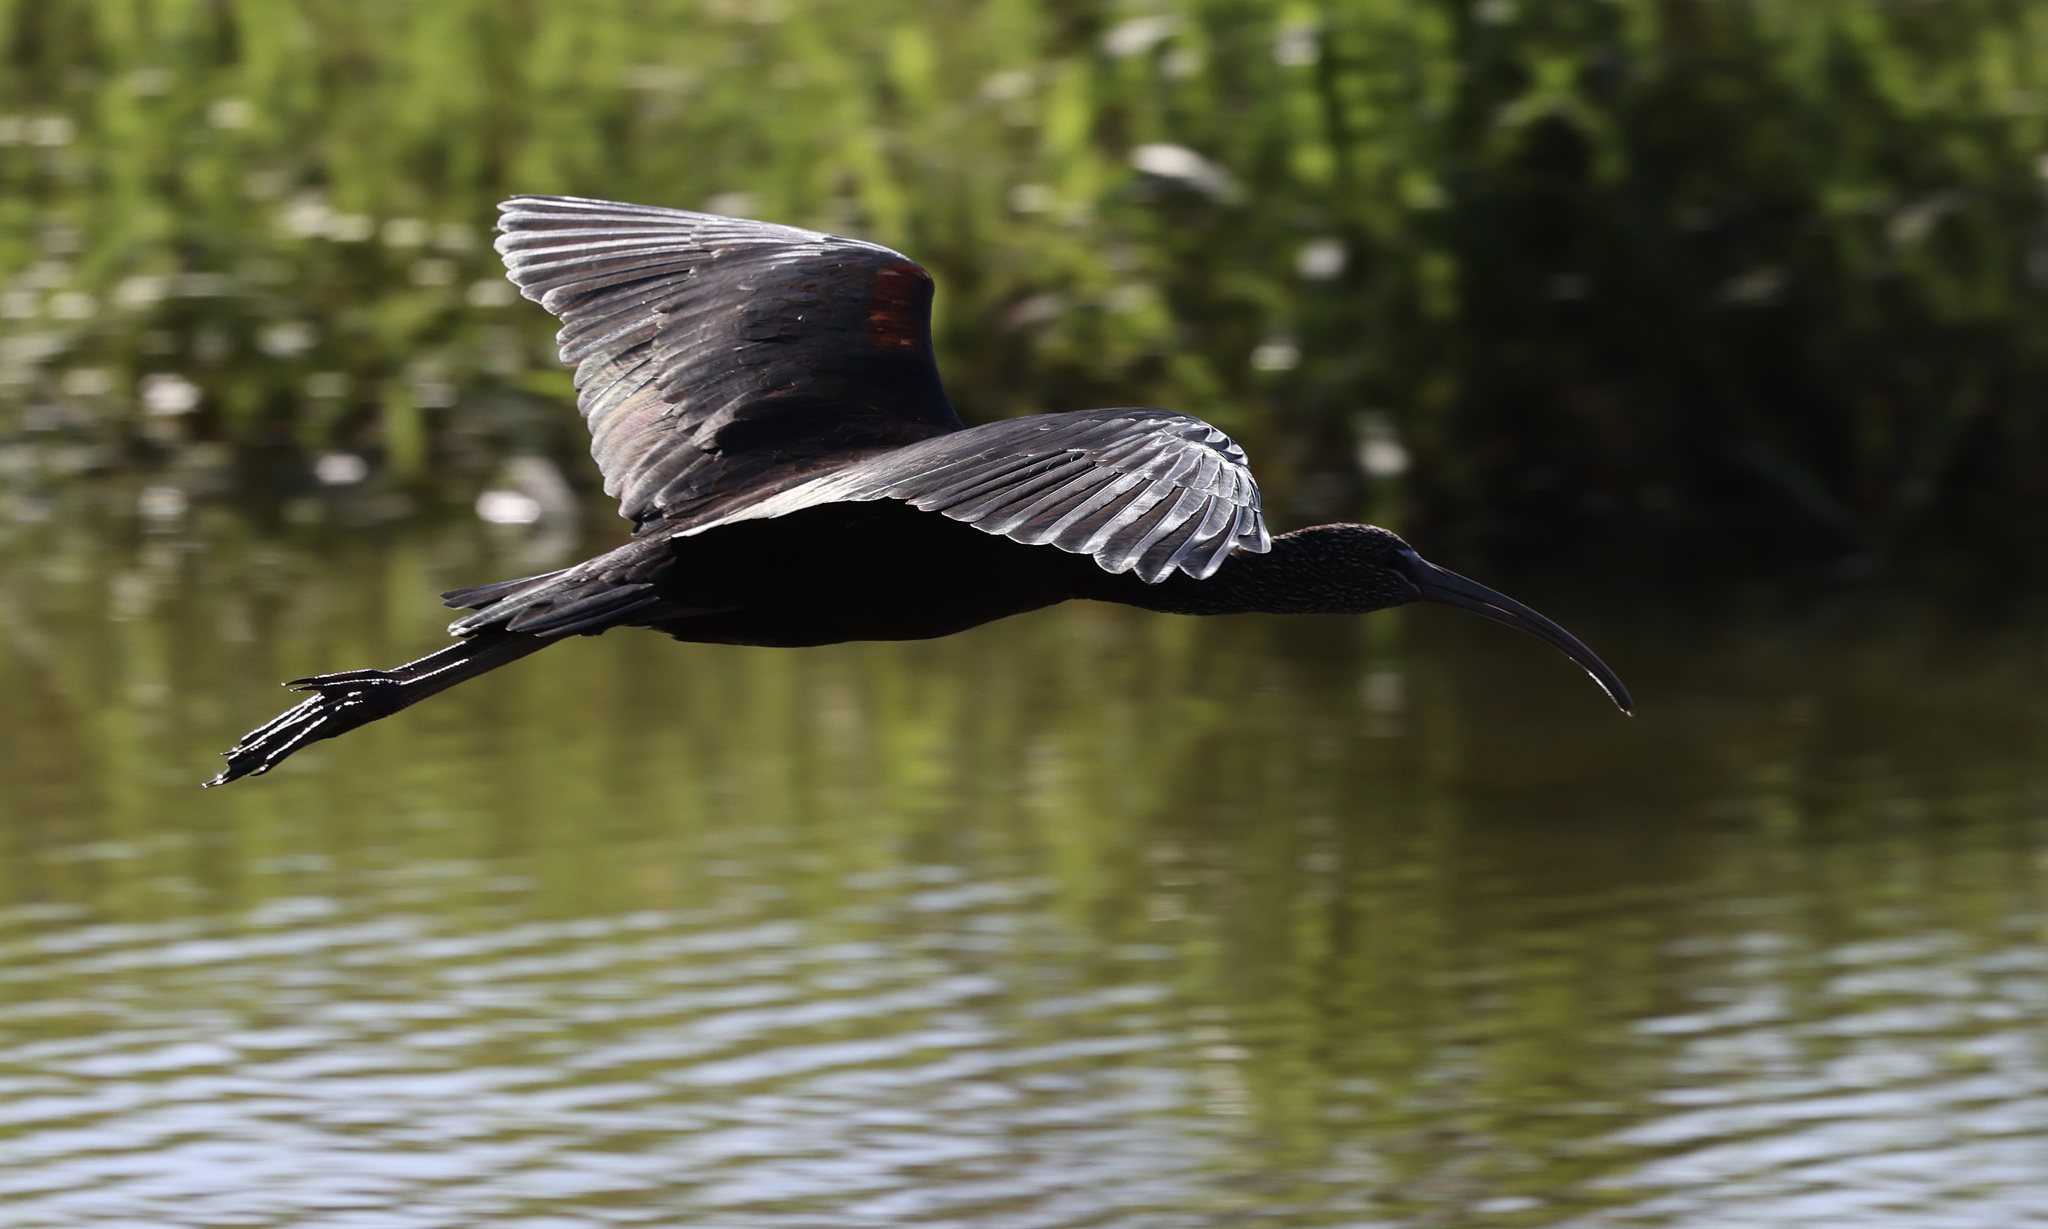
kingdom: Animalia
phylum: Chordata
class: Aves
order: Pelecaniformes
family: Threskiornithidae
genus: Plegadis
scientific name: Plegadis falcinellus
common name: Glossy ibis
